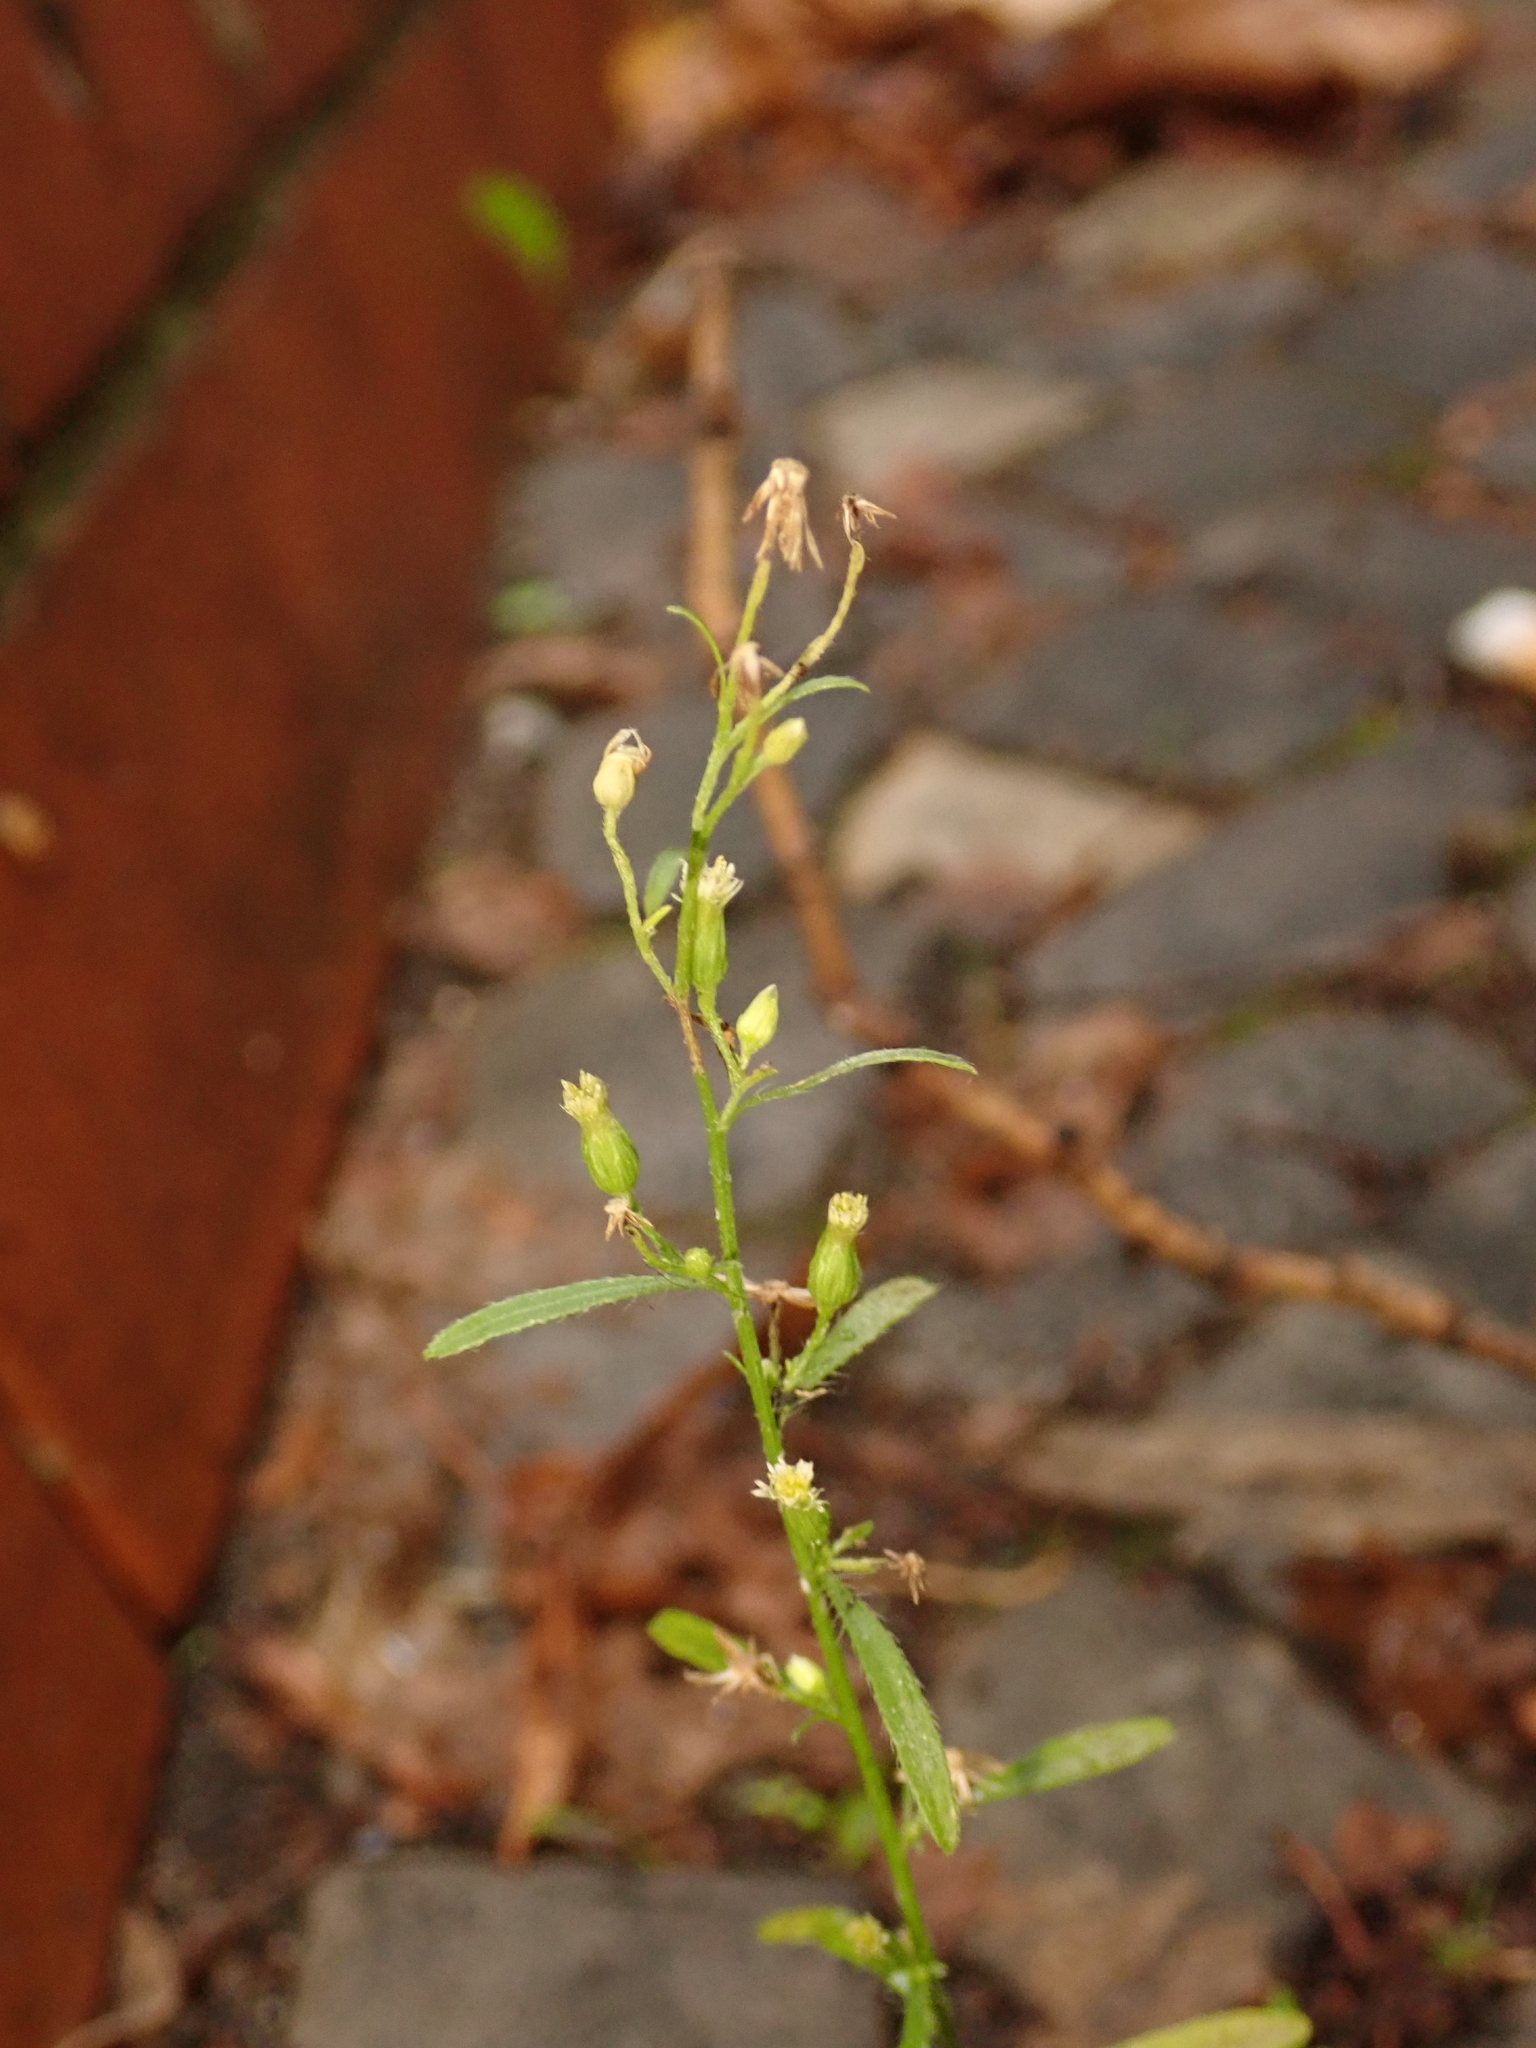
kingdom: Plantae
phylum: Tracheophyta
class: Magnoliopsida
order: Asterales
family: Asteraceae
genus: Erigeron
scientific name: Erigeron canadensis
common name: Canadian fleabane
